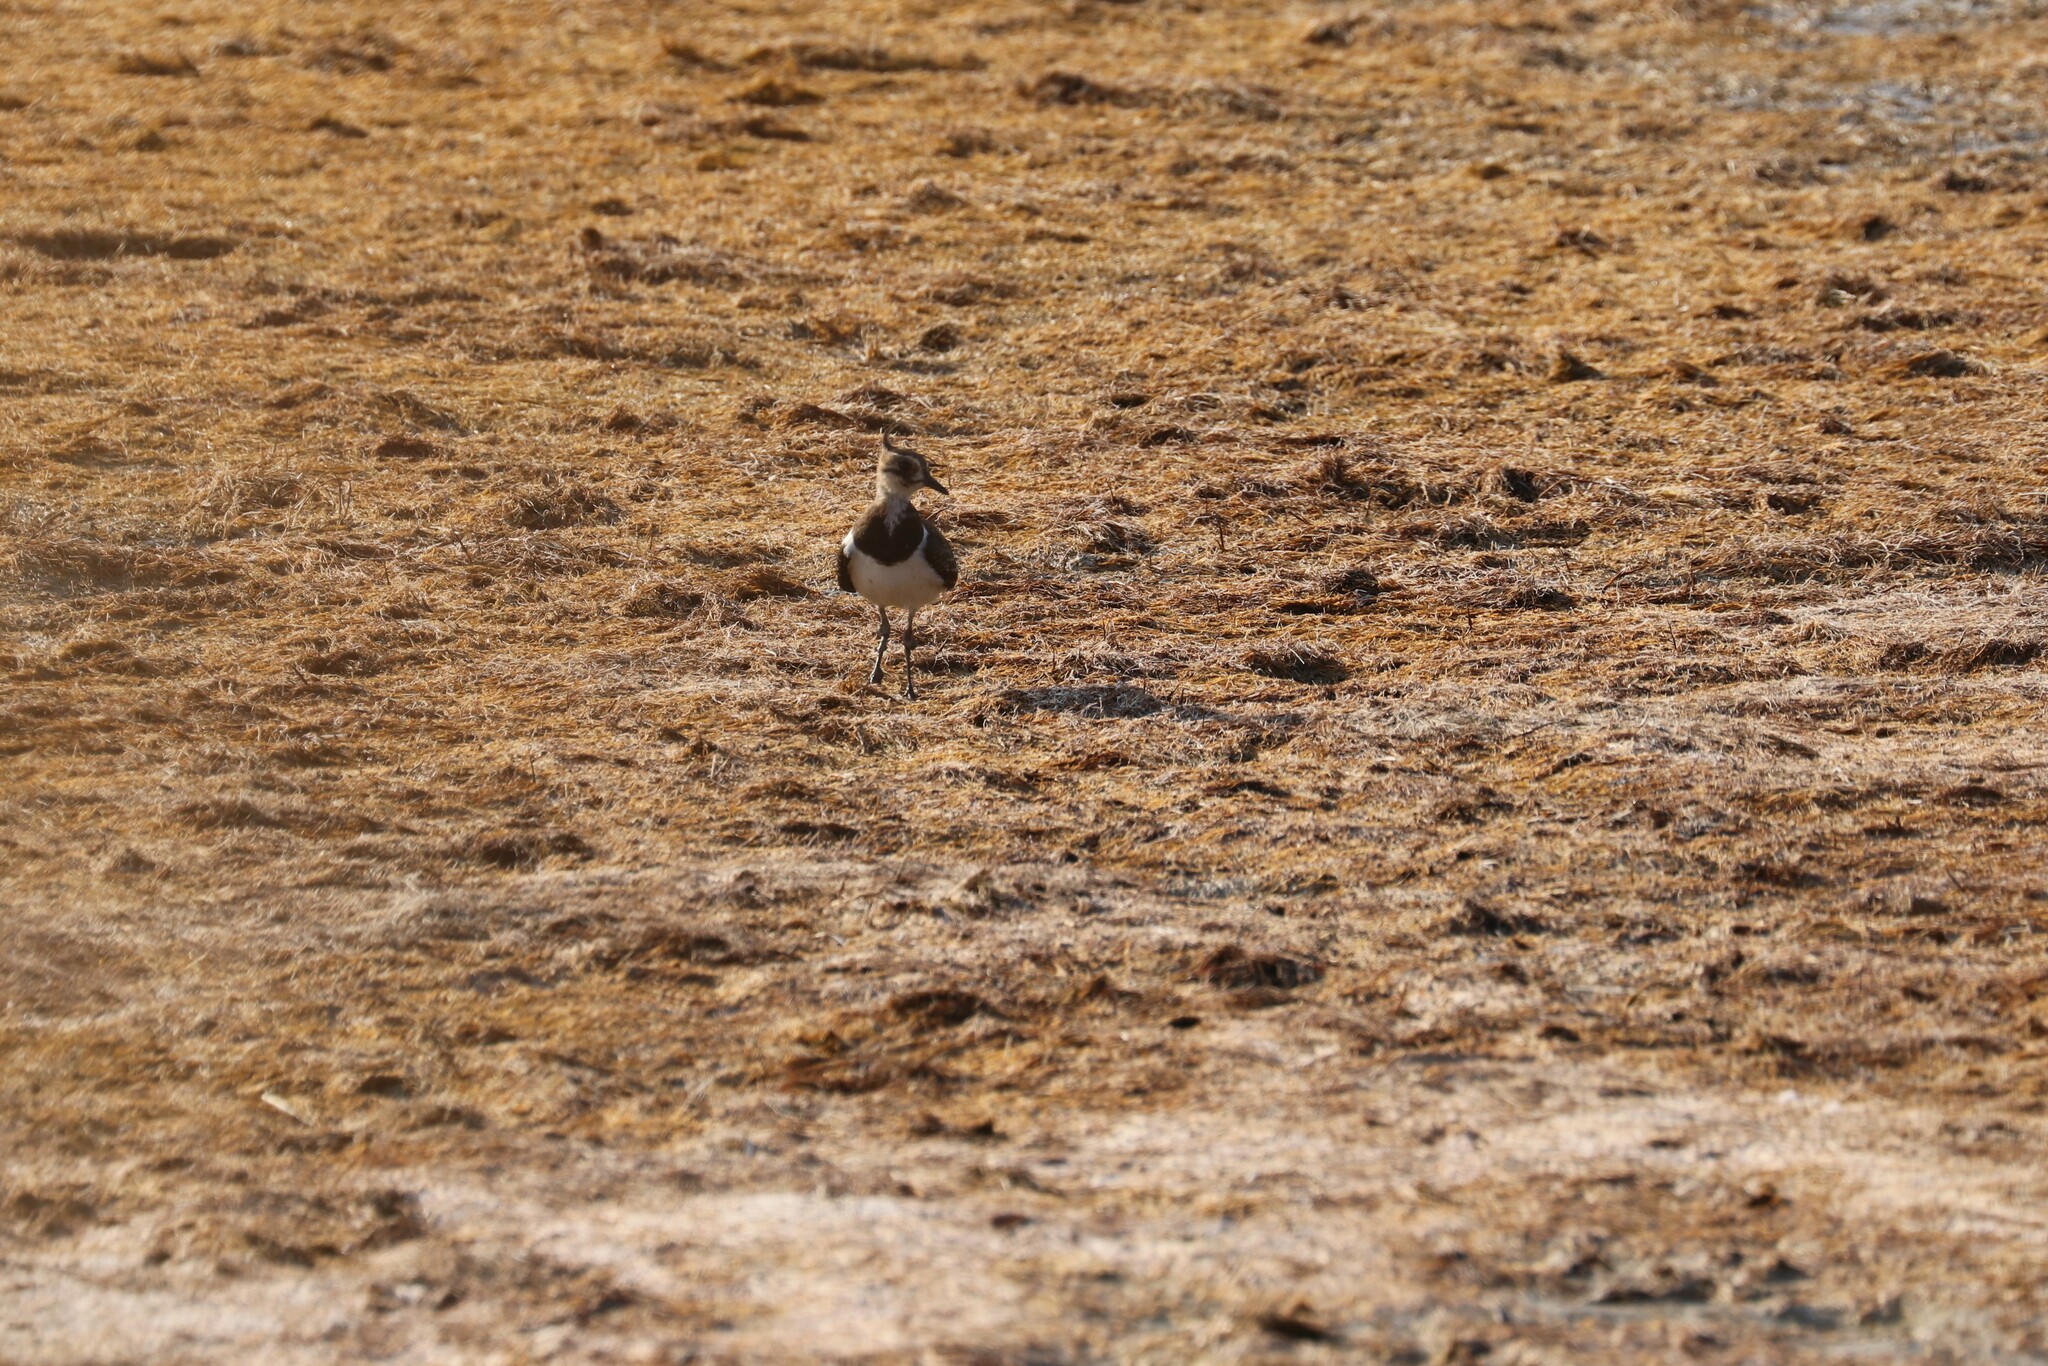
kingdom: Animalia
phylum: Chordata
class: Aves
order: Charadriiformes
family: Charadriidae
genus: Vanellus
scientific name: Vanellus vanellus
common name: Northern lapwing
